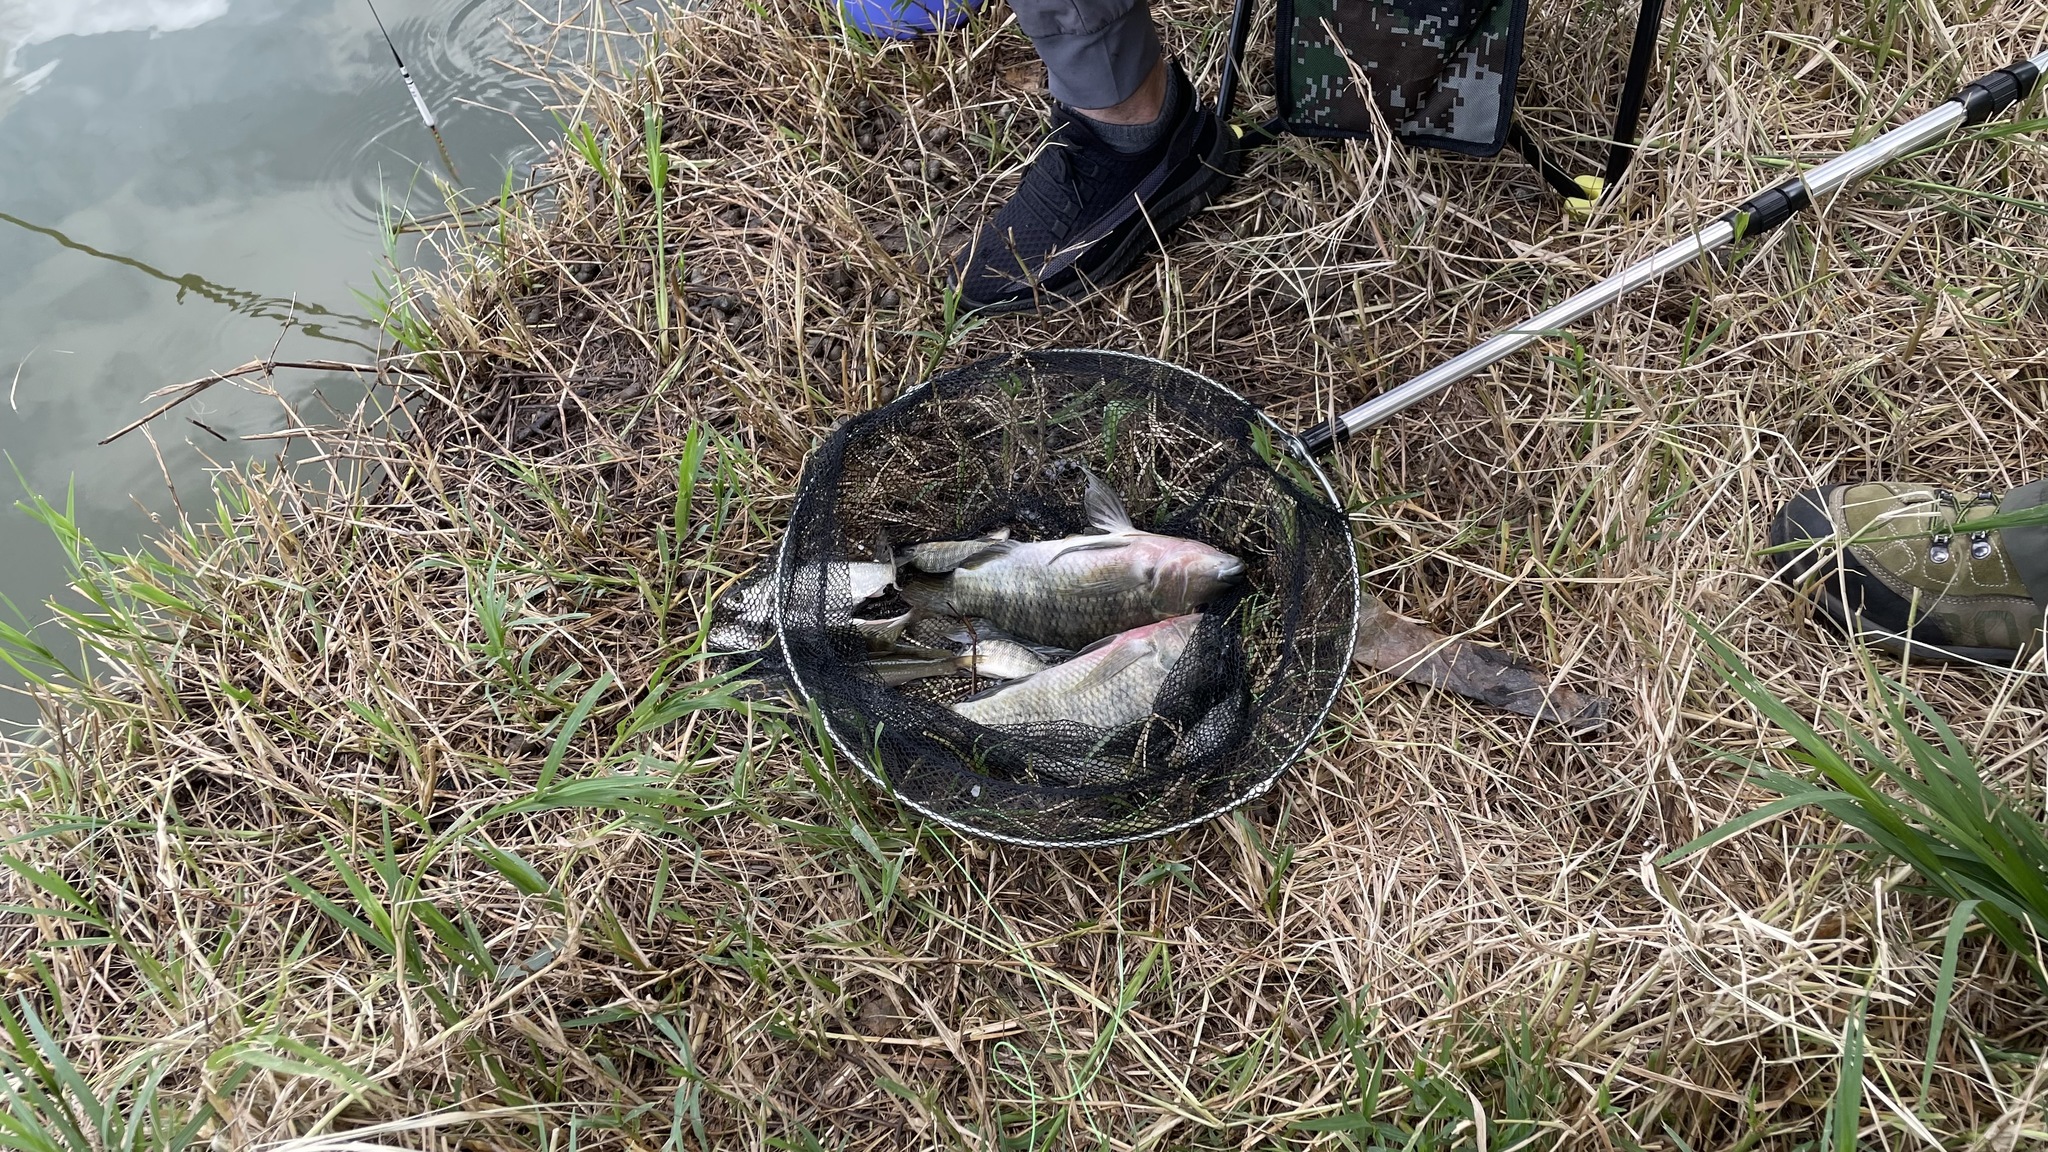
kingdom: Animalia
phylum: Chordata
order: Perciformes
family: Cichlidae
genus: Coptodon
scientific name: Coptodon zillii
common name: Redbelly tilapia
